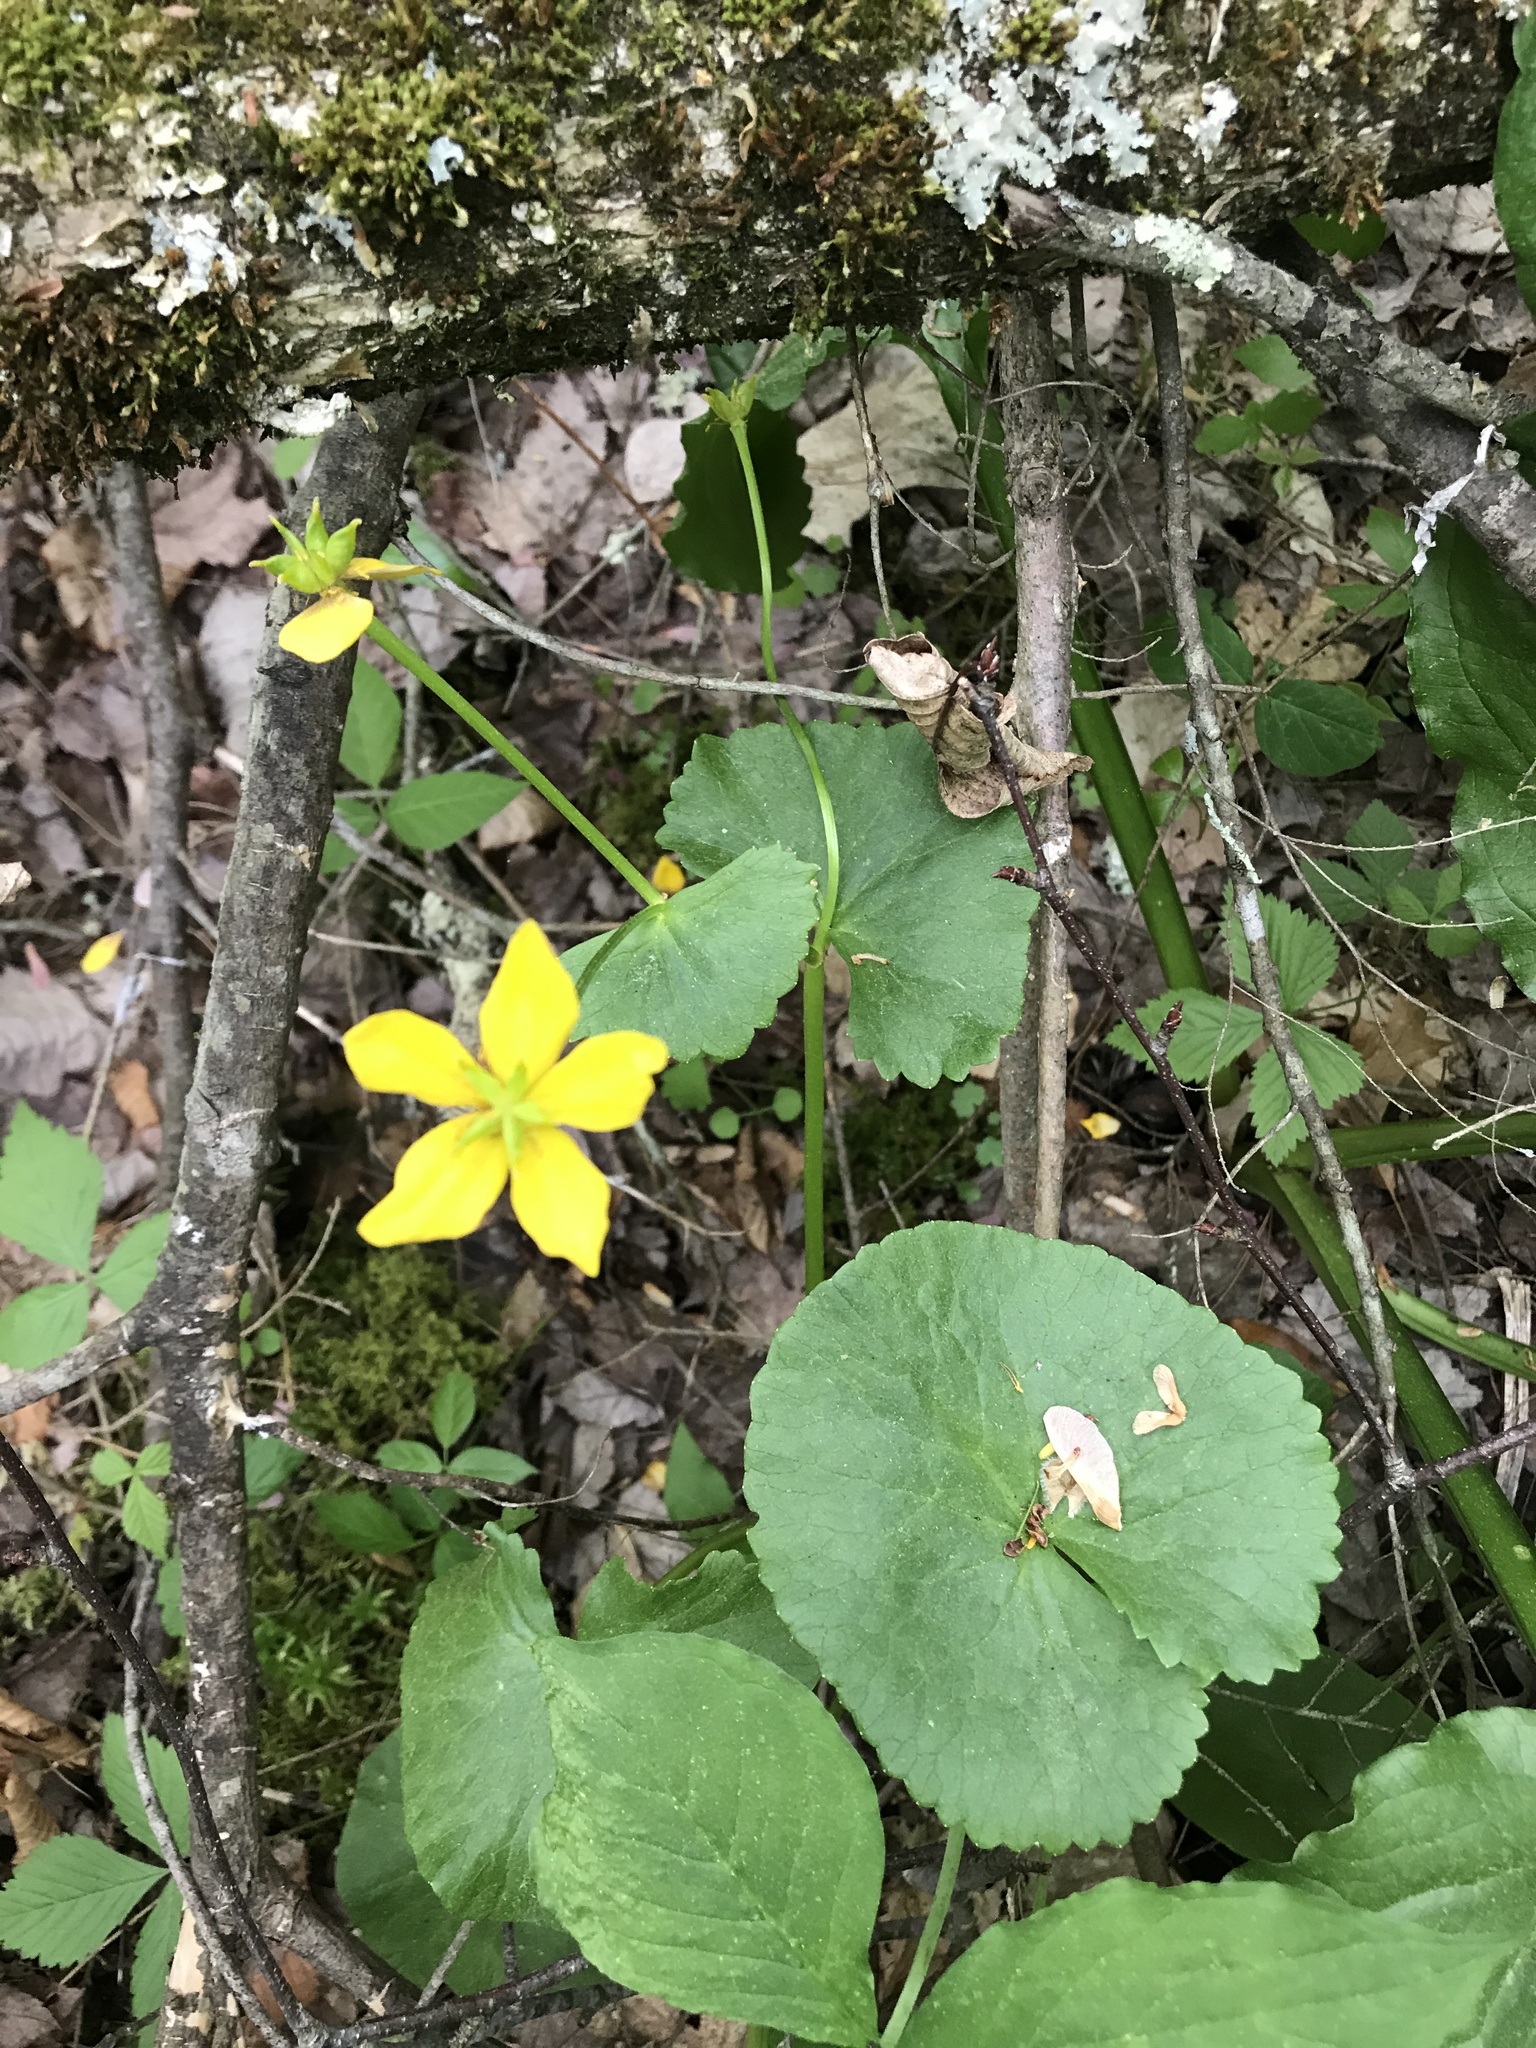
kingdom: Plantae
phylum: Tracheophyta
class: Magnoliopsida
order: Ranunculales
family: Ranunculaceae
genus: Caltha
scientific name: Caltha palustris
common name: Marsh marigold
